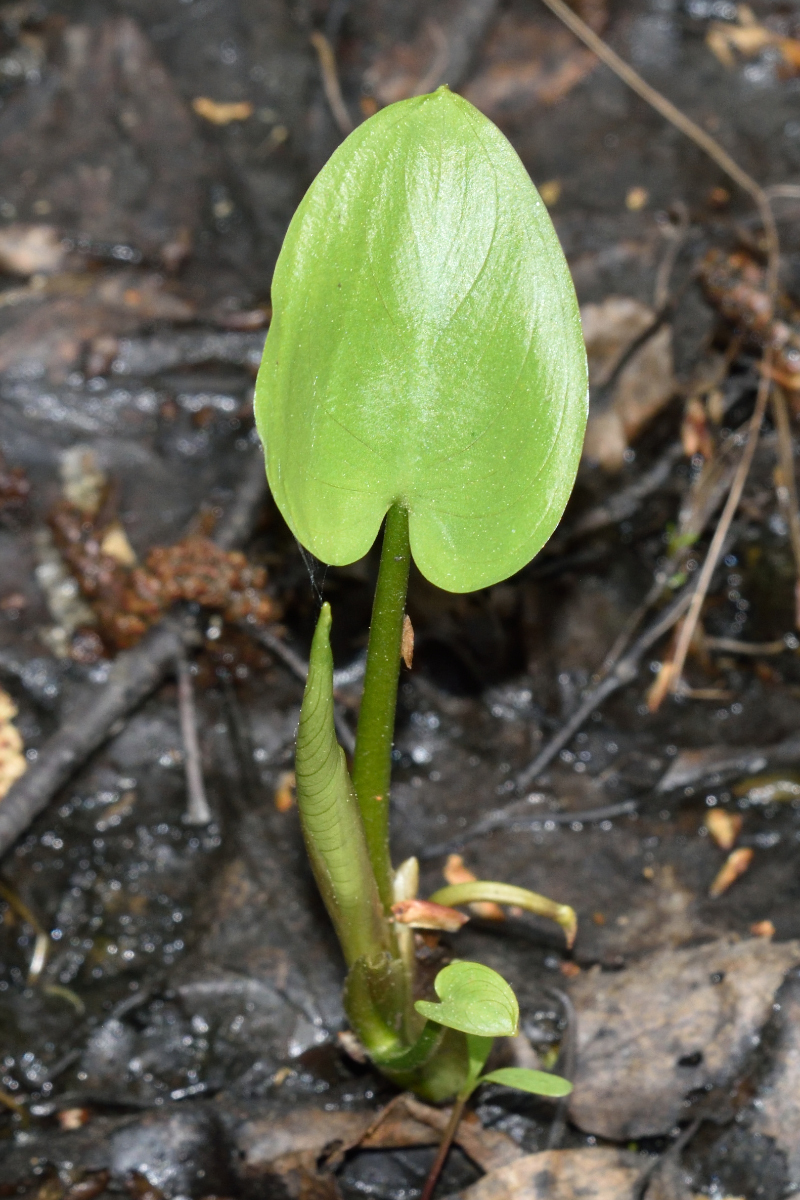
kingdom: Plantae
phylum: Tracheophyta
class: Liliopsida
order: Alismatales
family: Araceae
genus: Calla
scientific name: Calla palustris
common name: Bog arum
